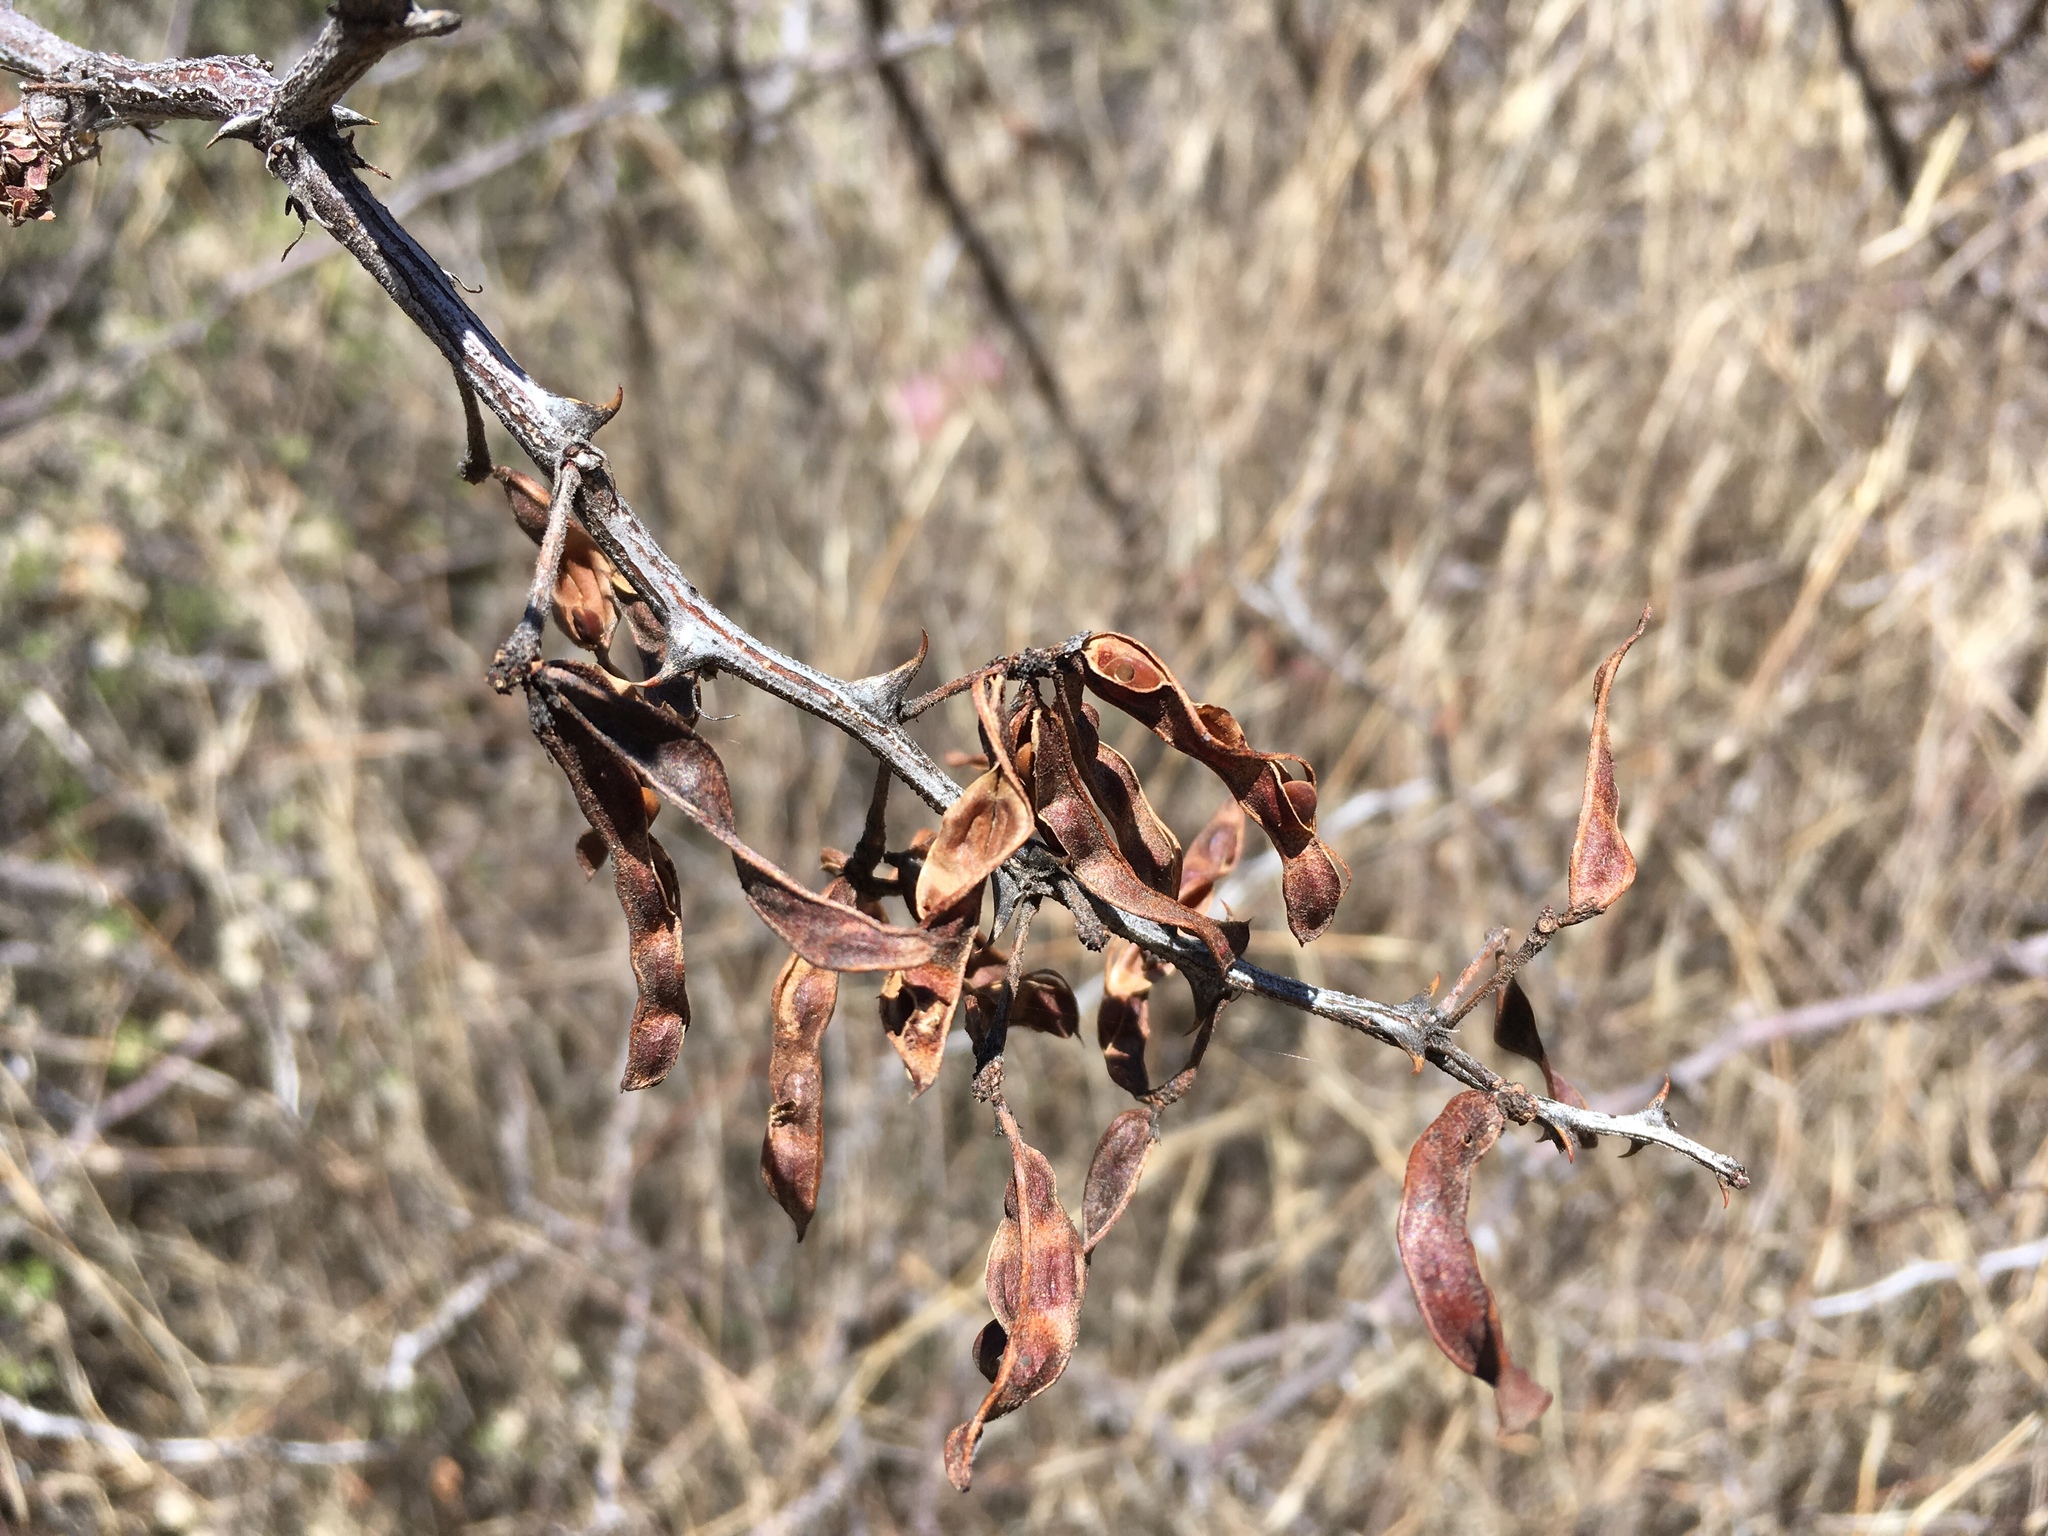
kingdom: Plantae
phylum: Tracheophyta
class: Magnoliopsida
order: Fabales
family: Fabaceae
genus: Mimosa
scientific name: Mimosa biuncifera
